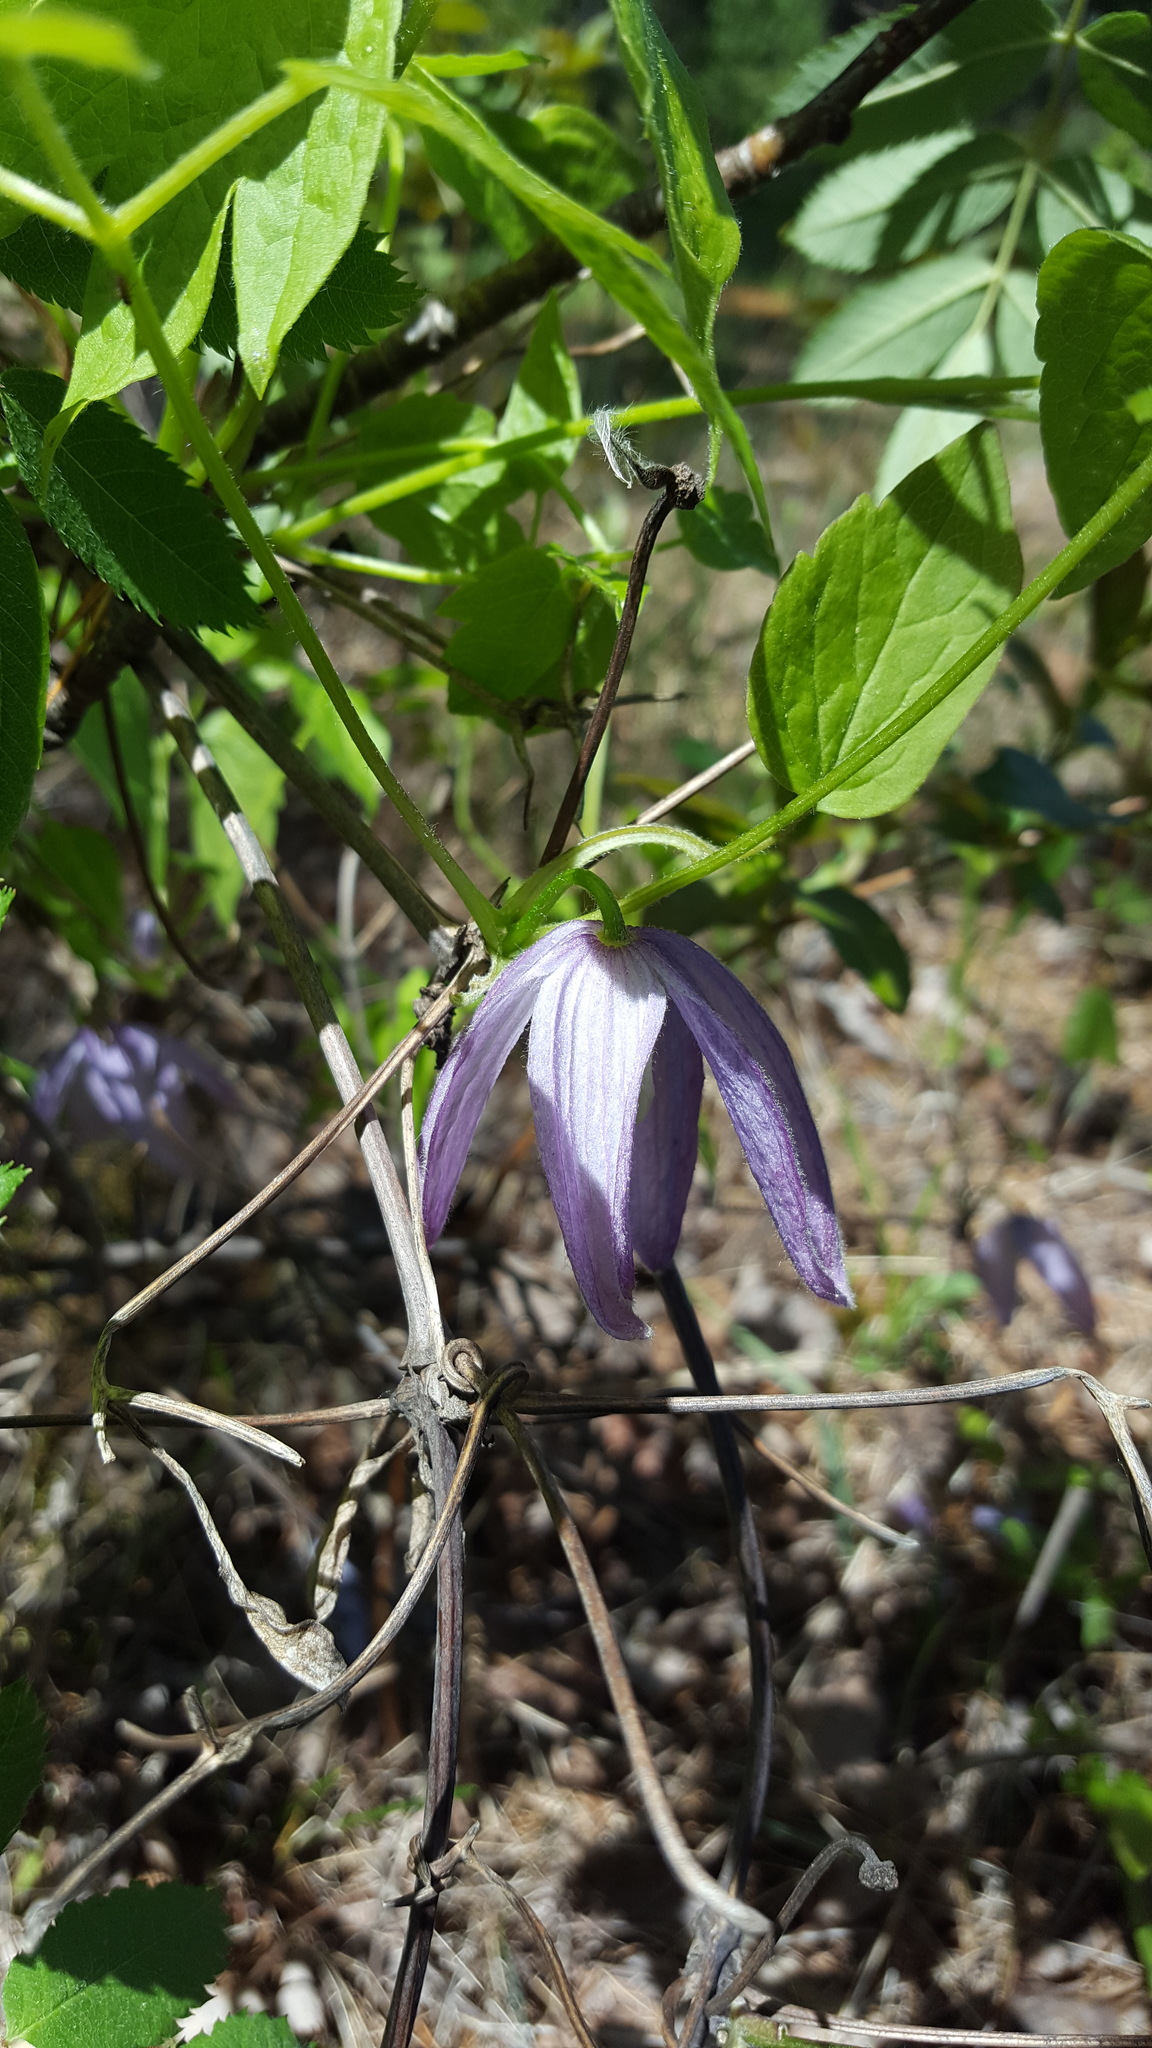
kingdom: Plantae
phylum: Tracheophyta
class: Magnoliopsida
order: Ranunculales
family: Ranunculaceae
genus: Clematis
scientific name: Clematis occidentalis
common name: Purple clematis
